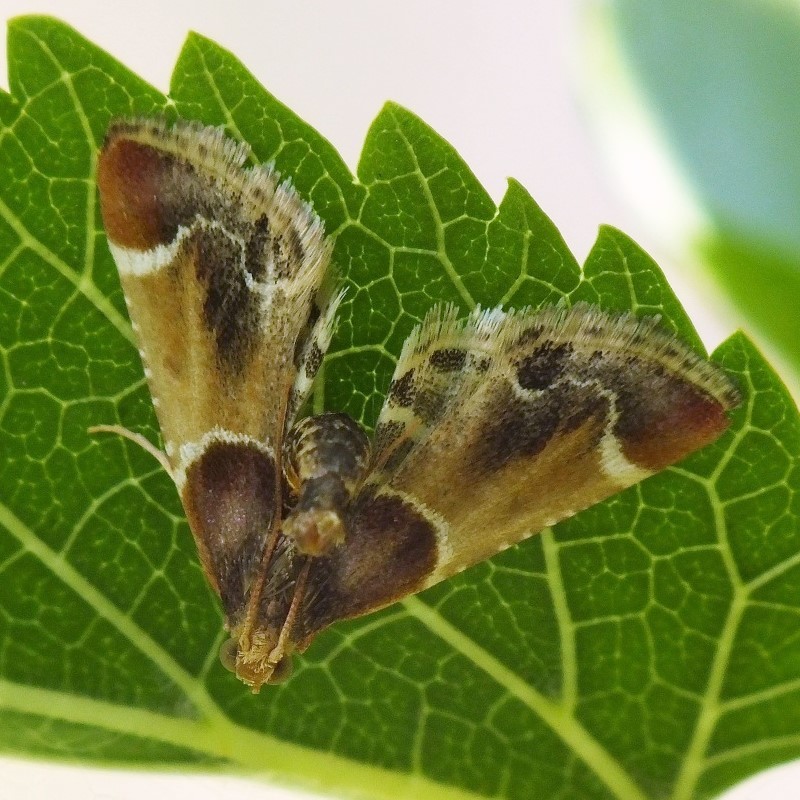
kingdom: Animalia
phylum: Arthropoda
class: Insecta
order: Lepidoptera
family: Pyralidae
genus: Pyralis
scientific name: Pyralis farinalis
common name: Meal moth
